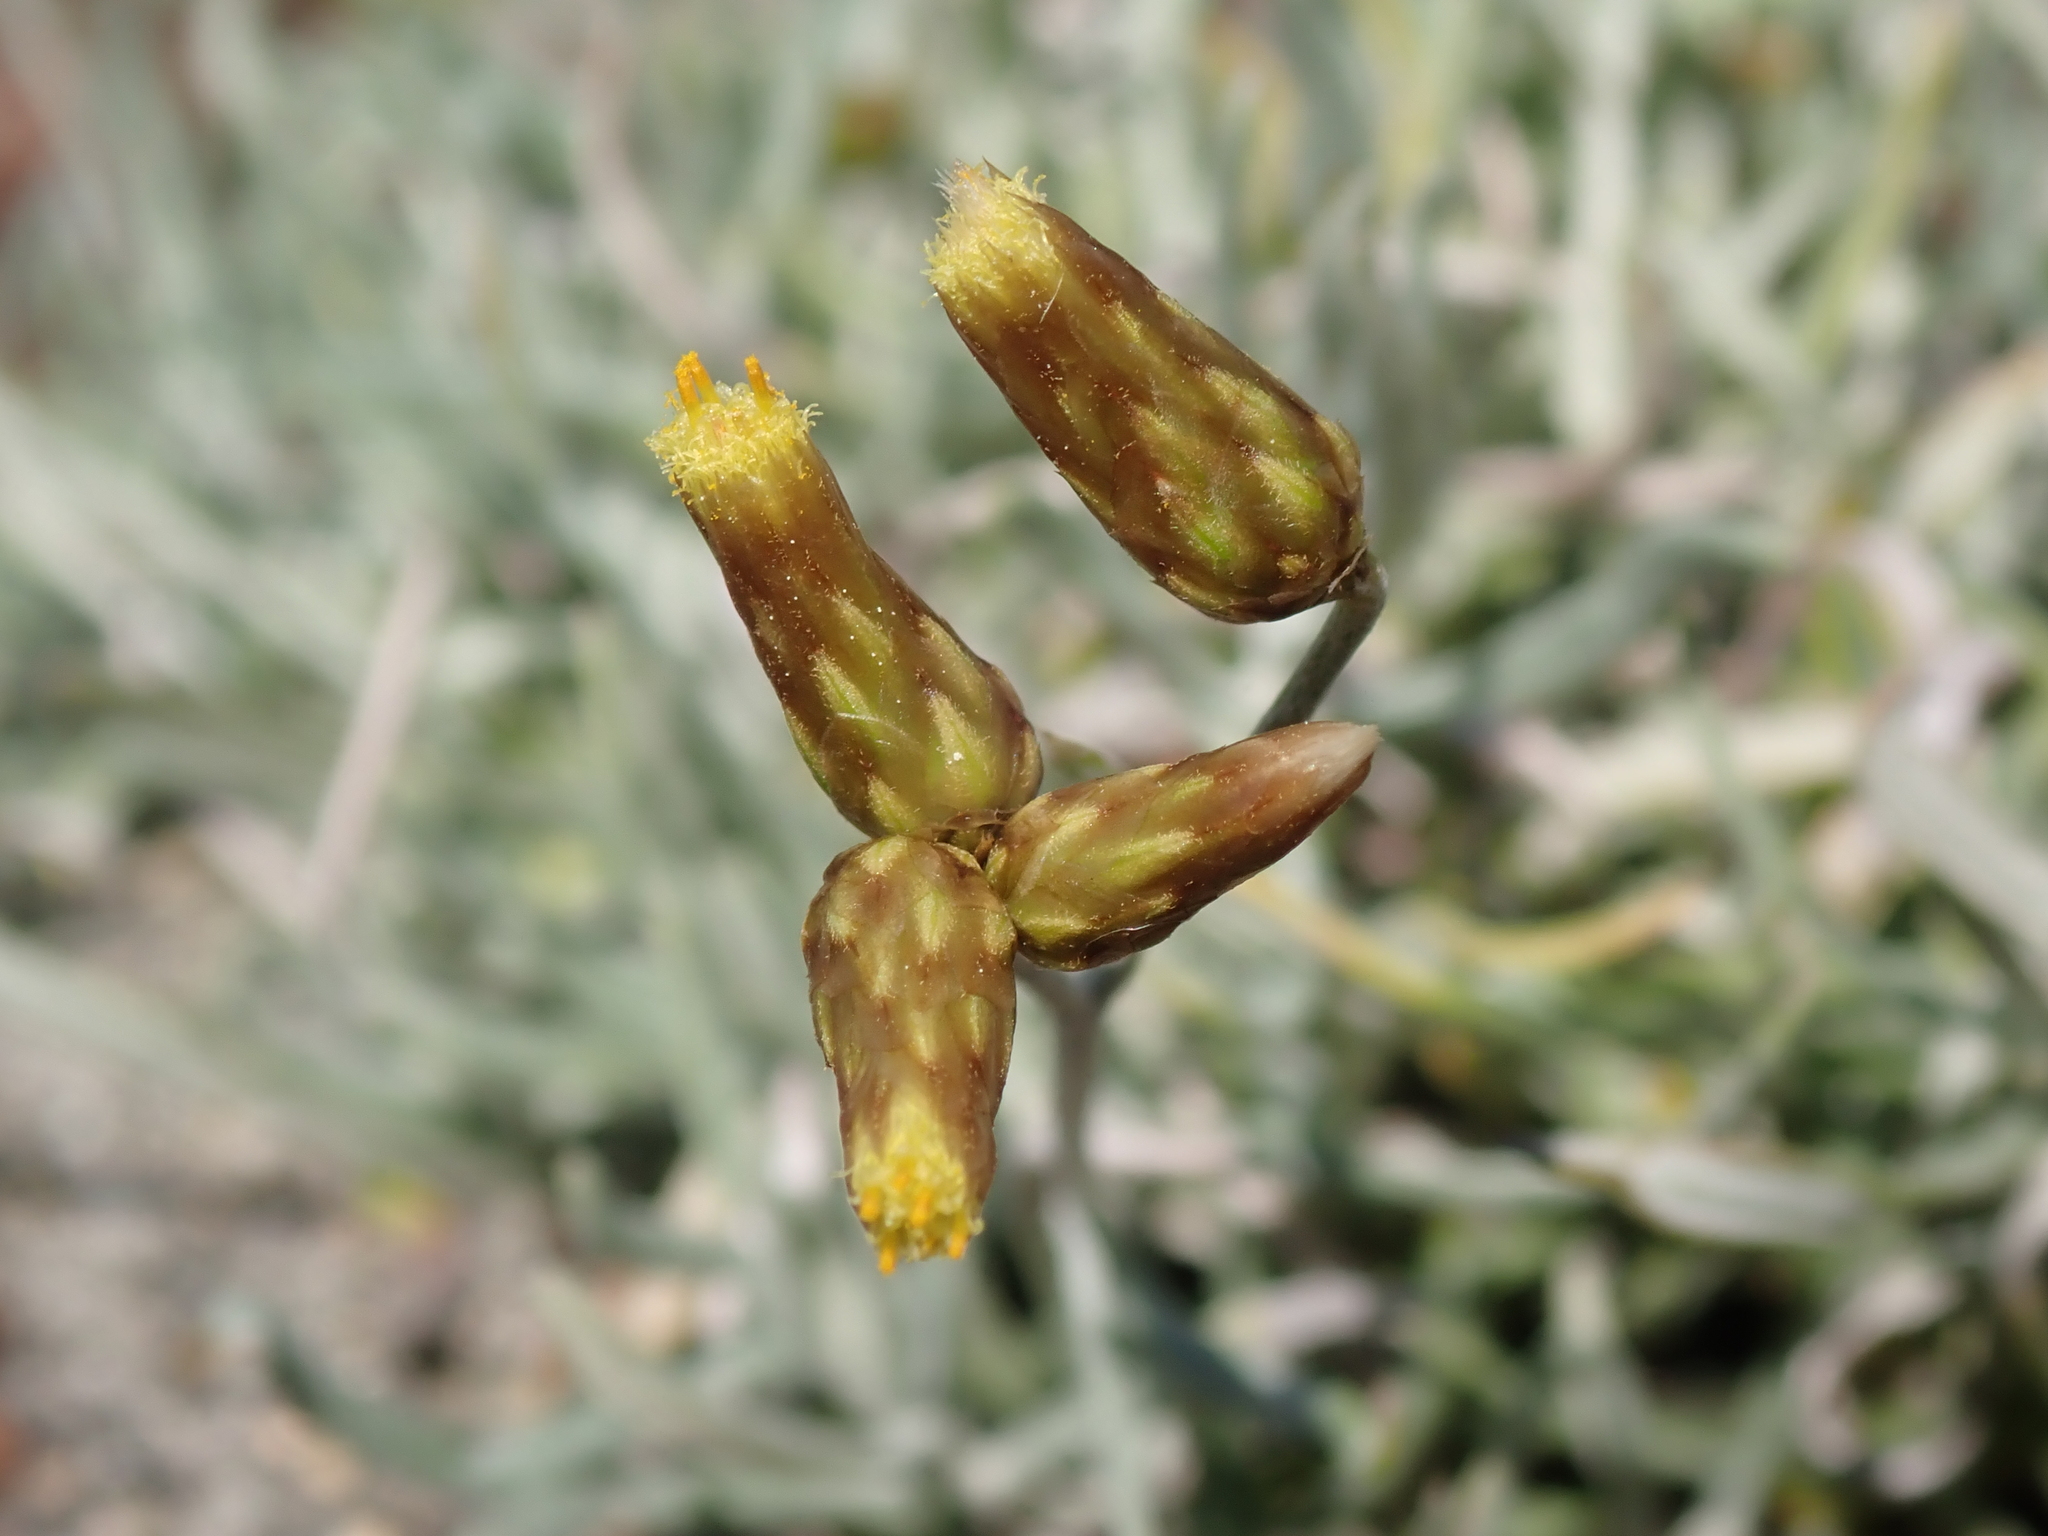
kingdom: Plantae
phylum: Tracheophyta
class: Magnoliopsida
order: Asterales
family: Asteraceae
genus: Phagnalon
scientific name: Phagnalon sordidum
